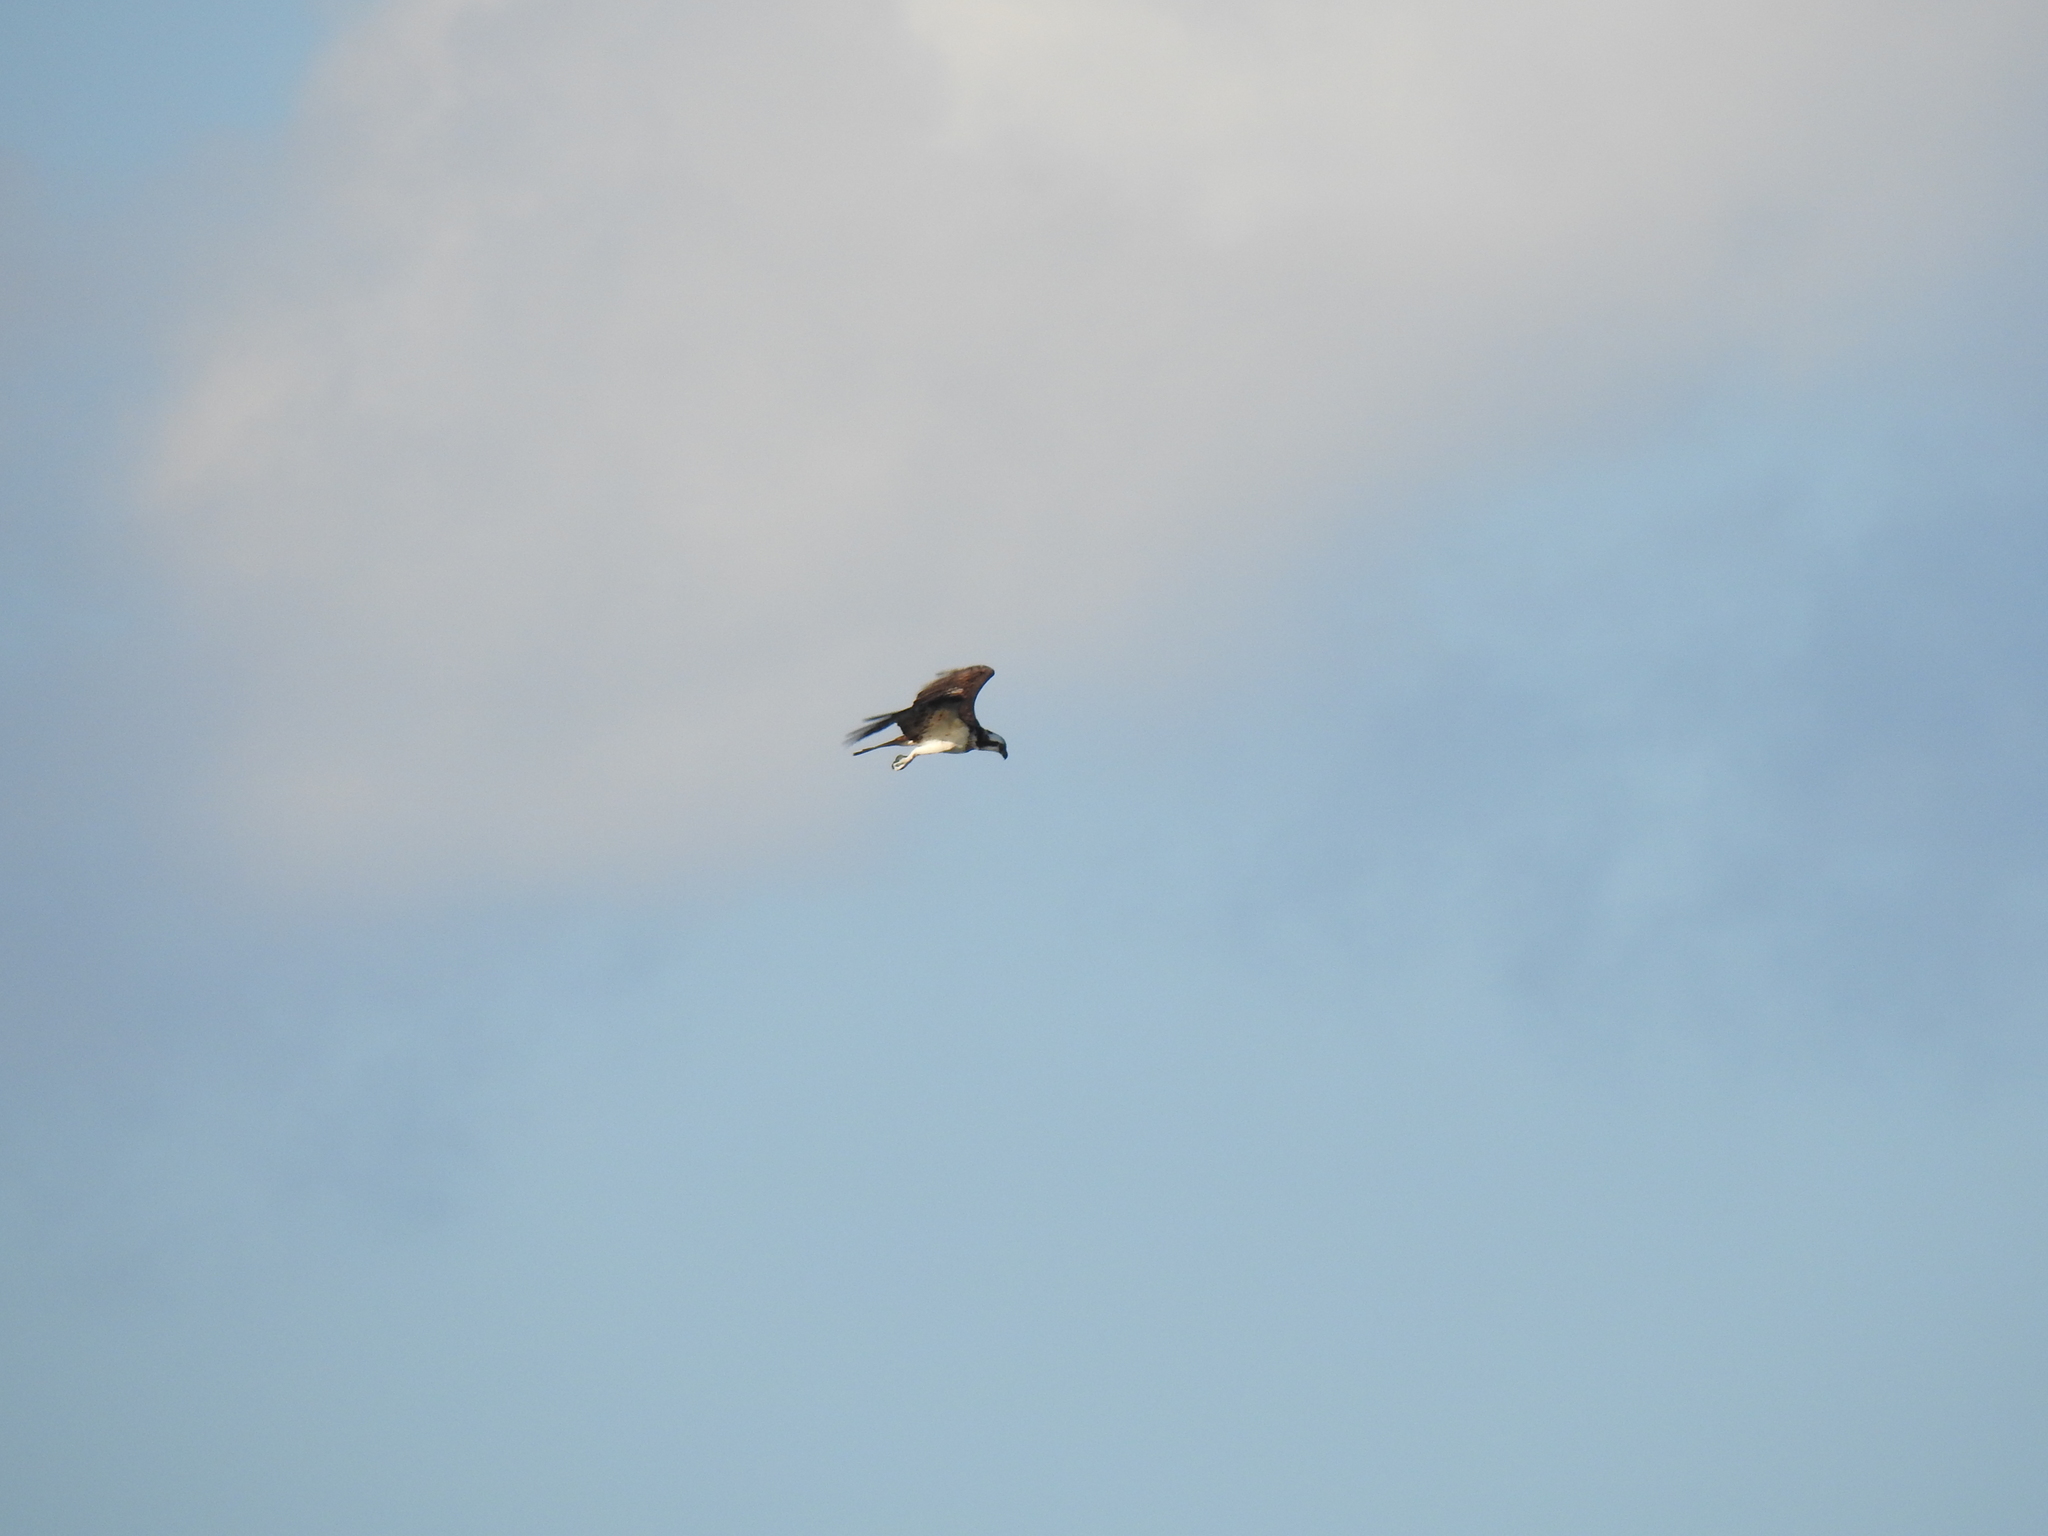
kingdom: Animalia
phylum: Chordata
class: Aves
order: Accipitriformes
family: Pandionidae
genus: Pandion
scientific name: Pandion haliaetus
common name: Osprey
